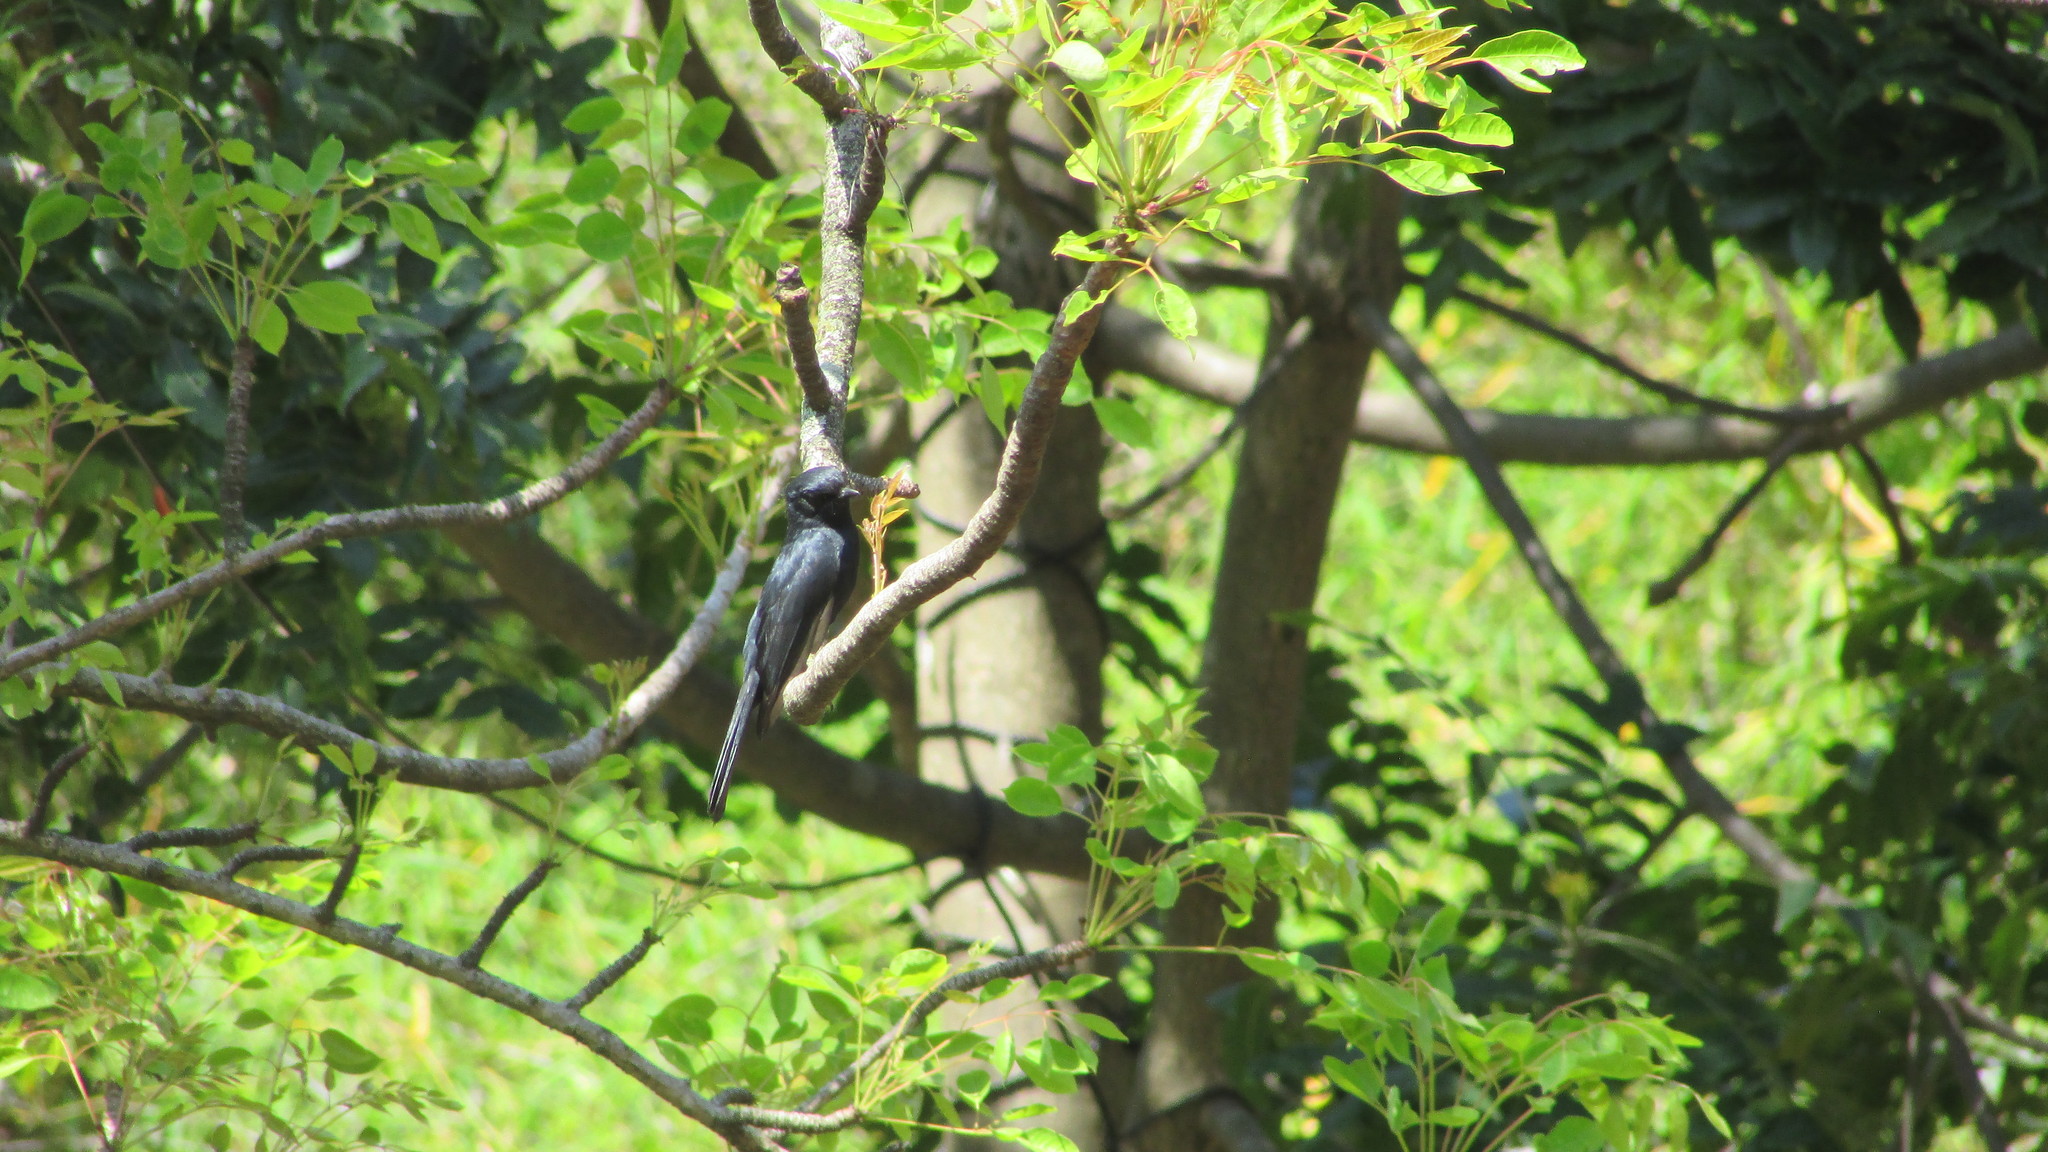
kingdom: Animalia
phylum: Chordata
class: Aves
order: Passeriformes
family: Muscicapidae
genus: Melaenornis
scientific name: Melaenornis pammelaina
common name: Southern black flycatcher
